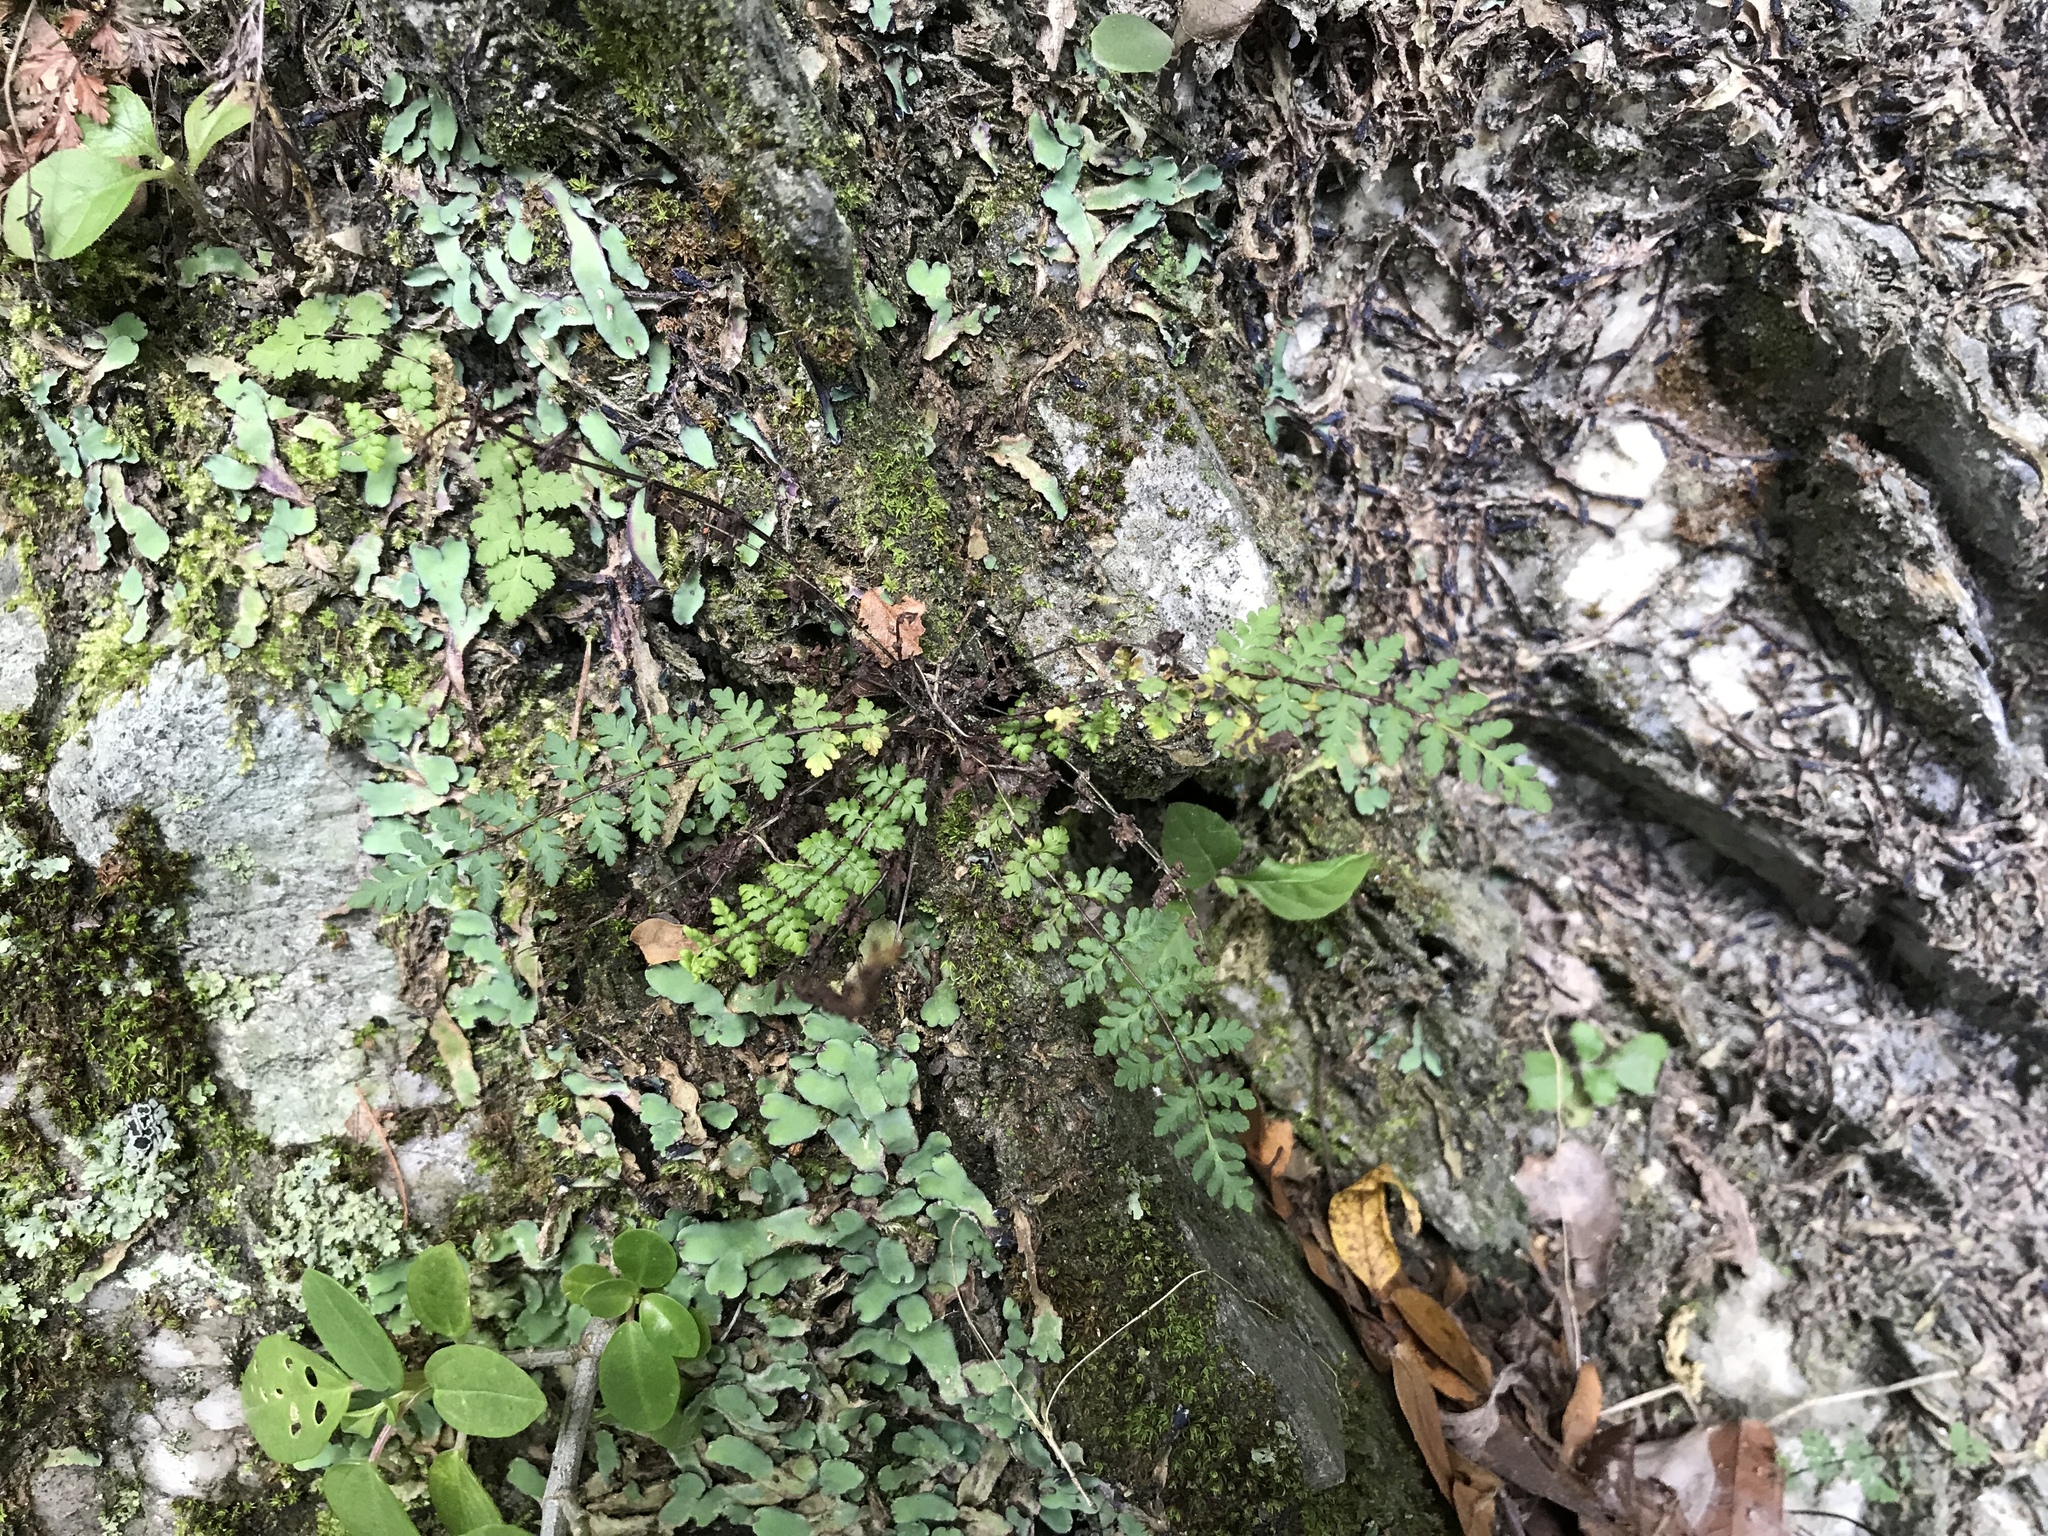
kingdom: Plantae
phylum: Tracheophyta
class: Polypodiopsida
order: Polypodiales
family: Pteridaceae
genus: Oeosporangium
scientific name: Oeosporangium chusanum
